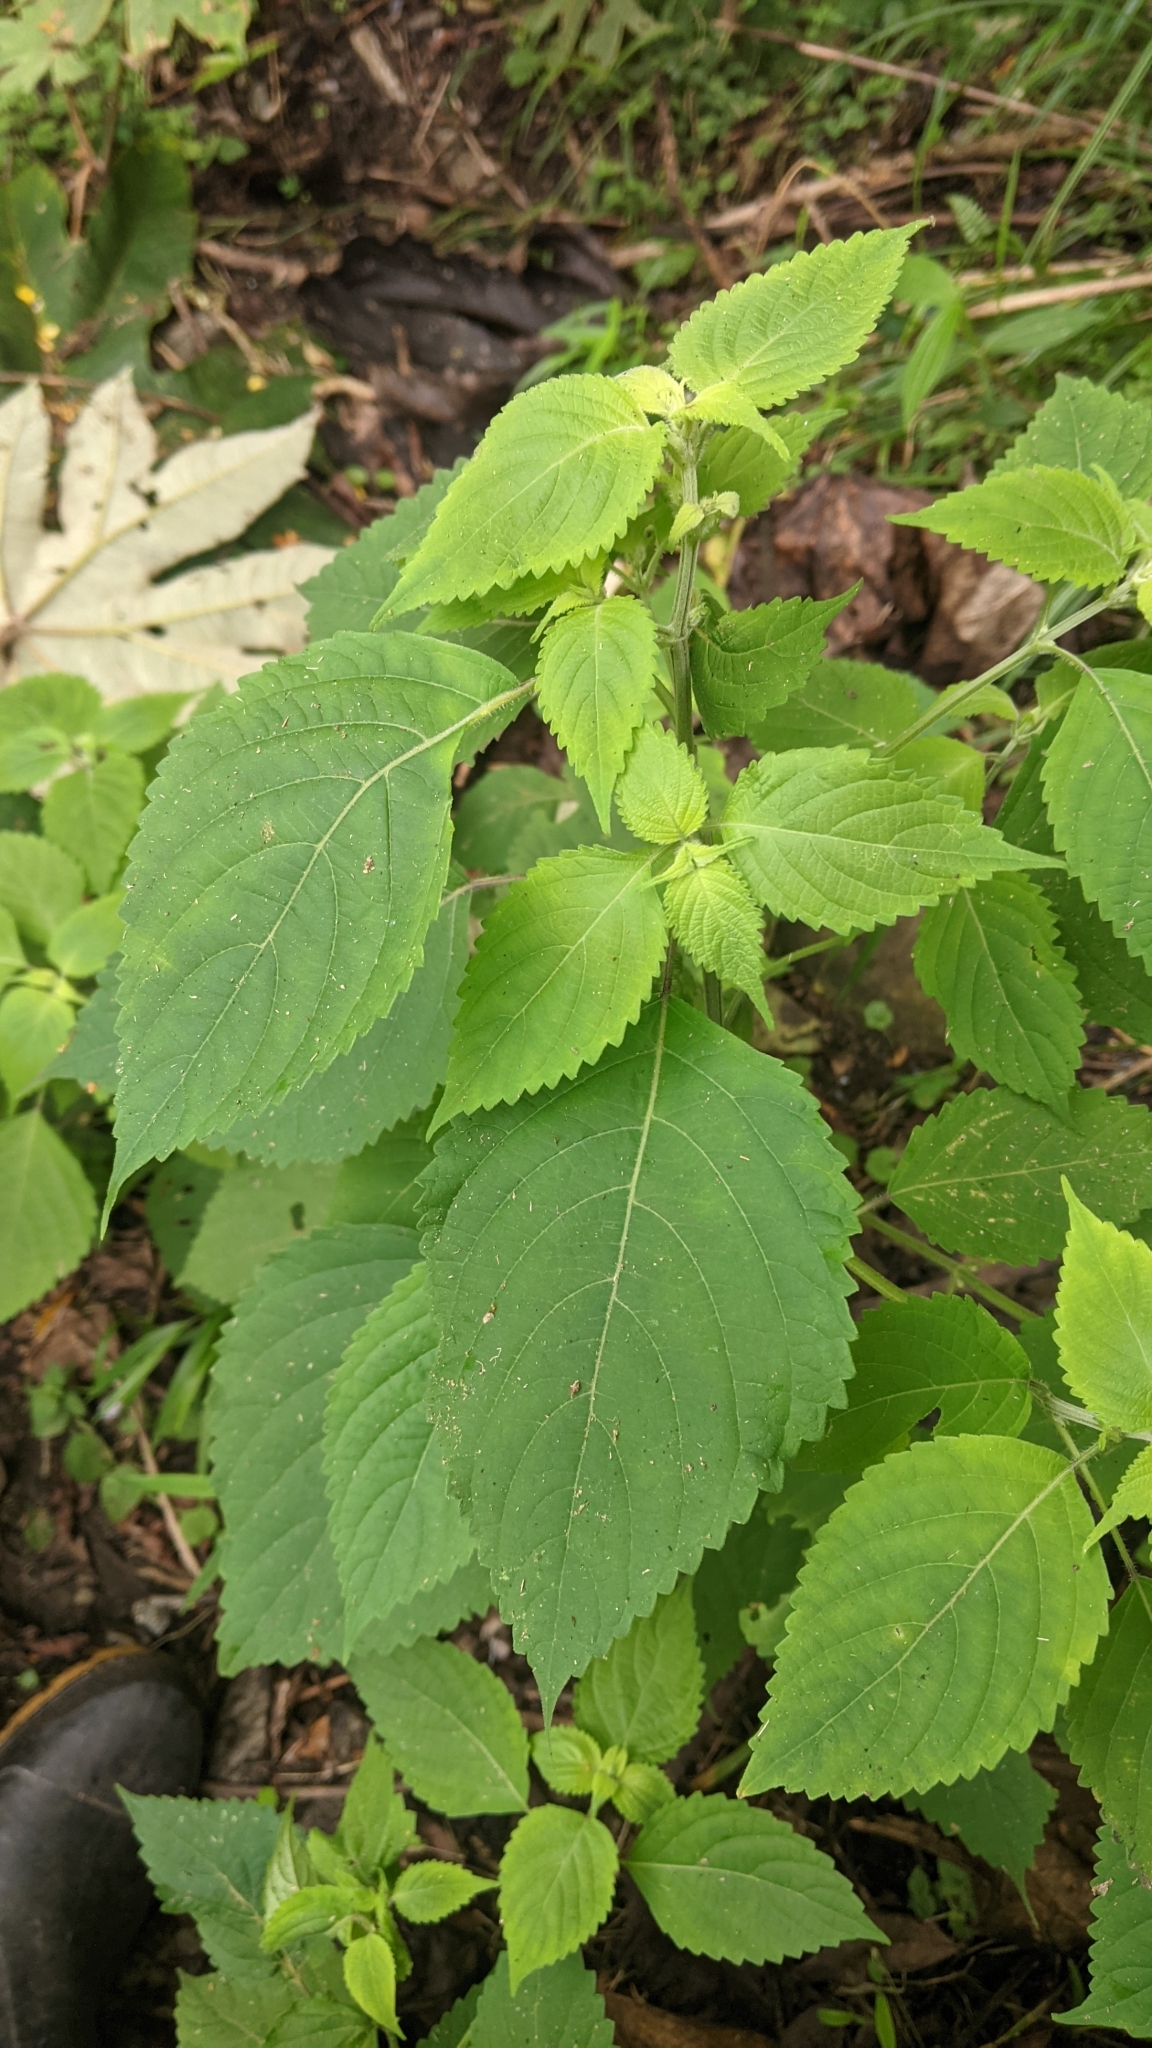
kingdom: Plantae
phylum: Tracheophyta
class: Magnoliopsida
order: Lamiales
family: Lamiaceae
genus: Collinsonia
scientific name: Collinsonia macrobracteata
